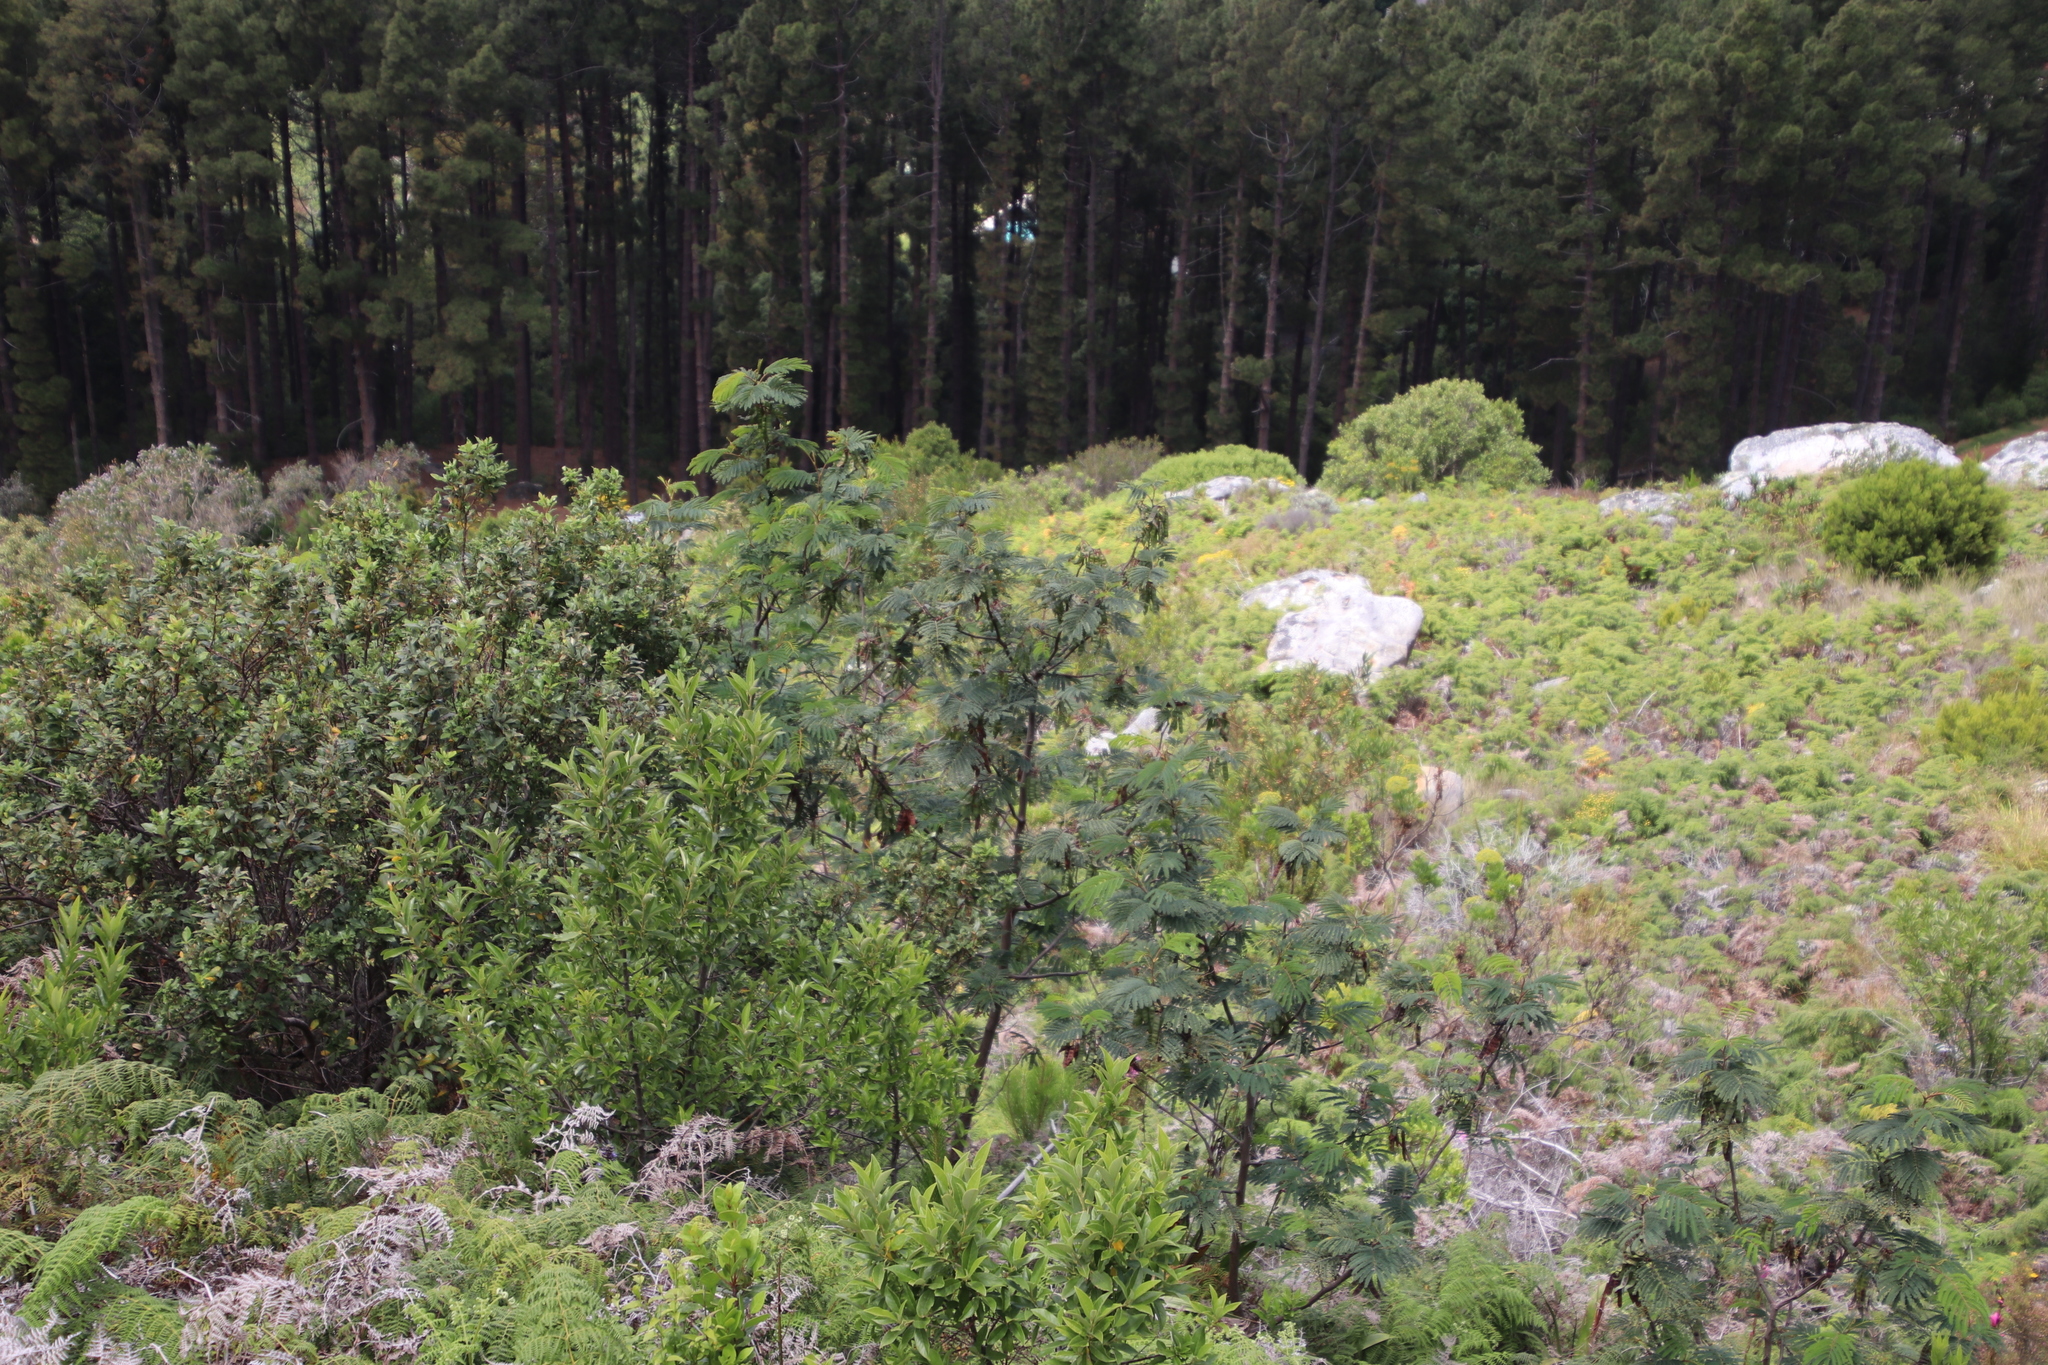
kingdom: Plantae
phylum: Tracheophyta
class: Magnoliopsida
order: Fabales
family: Fabaceae
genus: Paraserianthes
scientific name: Paraserianthes lophantha
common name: Plume albizia
